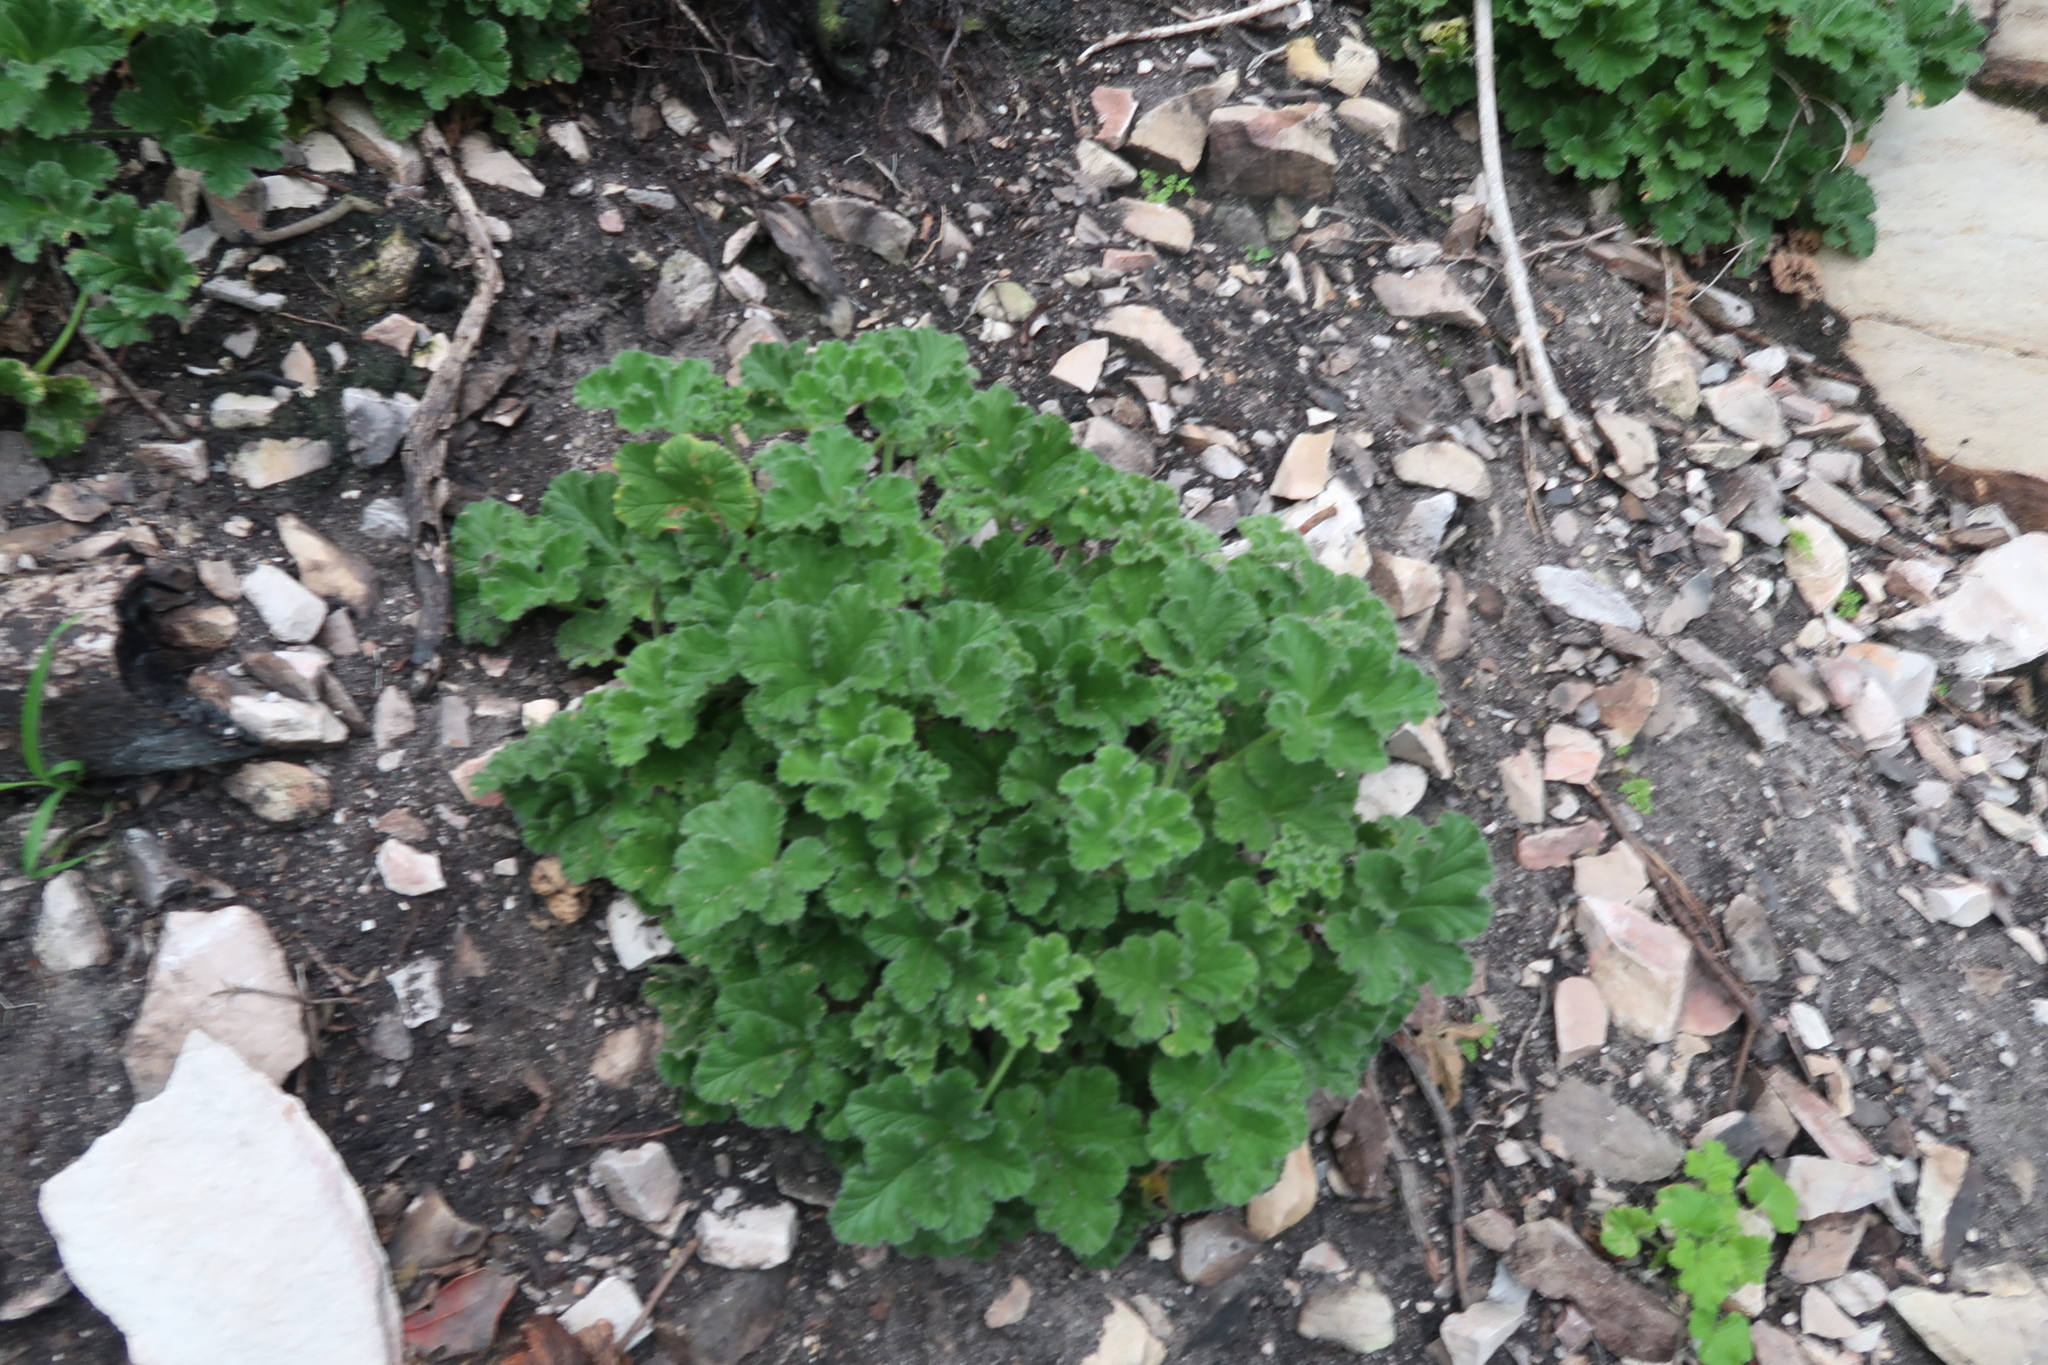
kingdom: Plantae
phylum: Tracheophyta
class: Magnoliopsida
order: Geraniales
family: Geraniaceae
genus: Pelargonium
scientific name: Pelargonium tomentosum
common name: Peppermint-scented geranium
